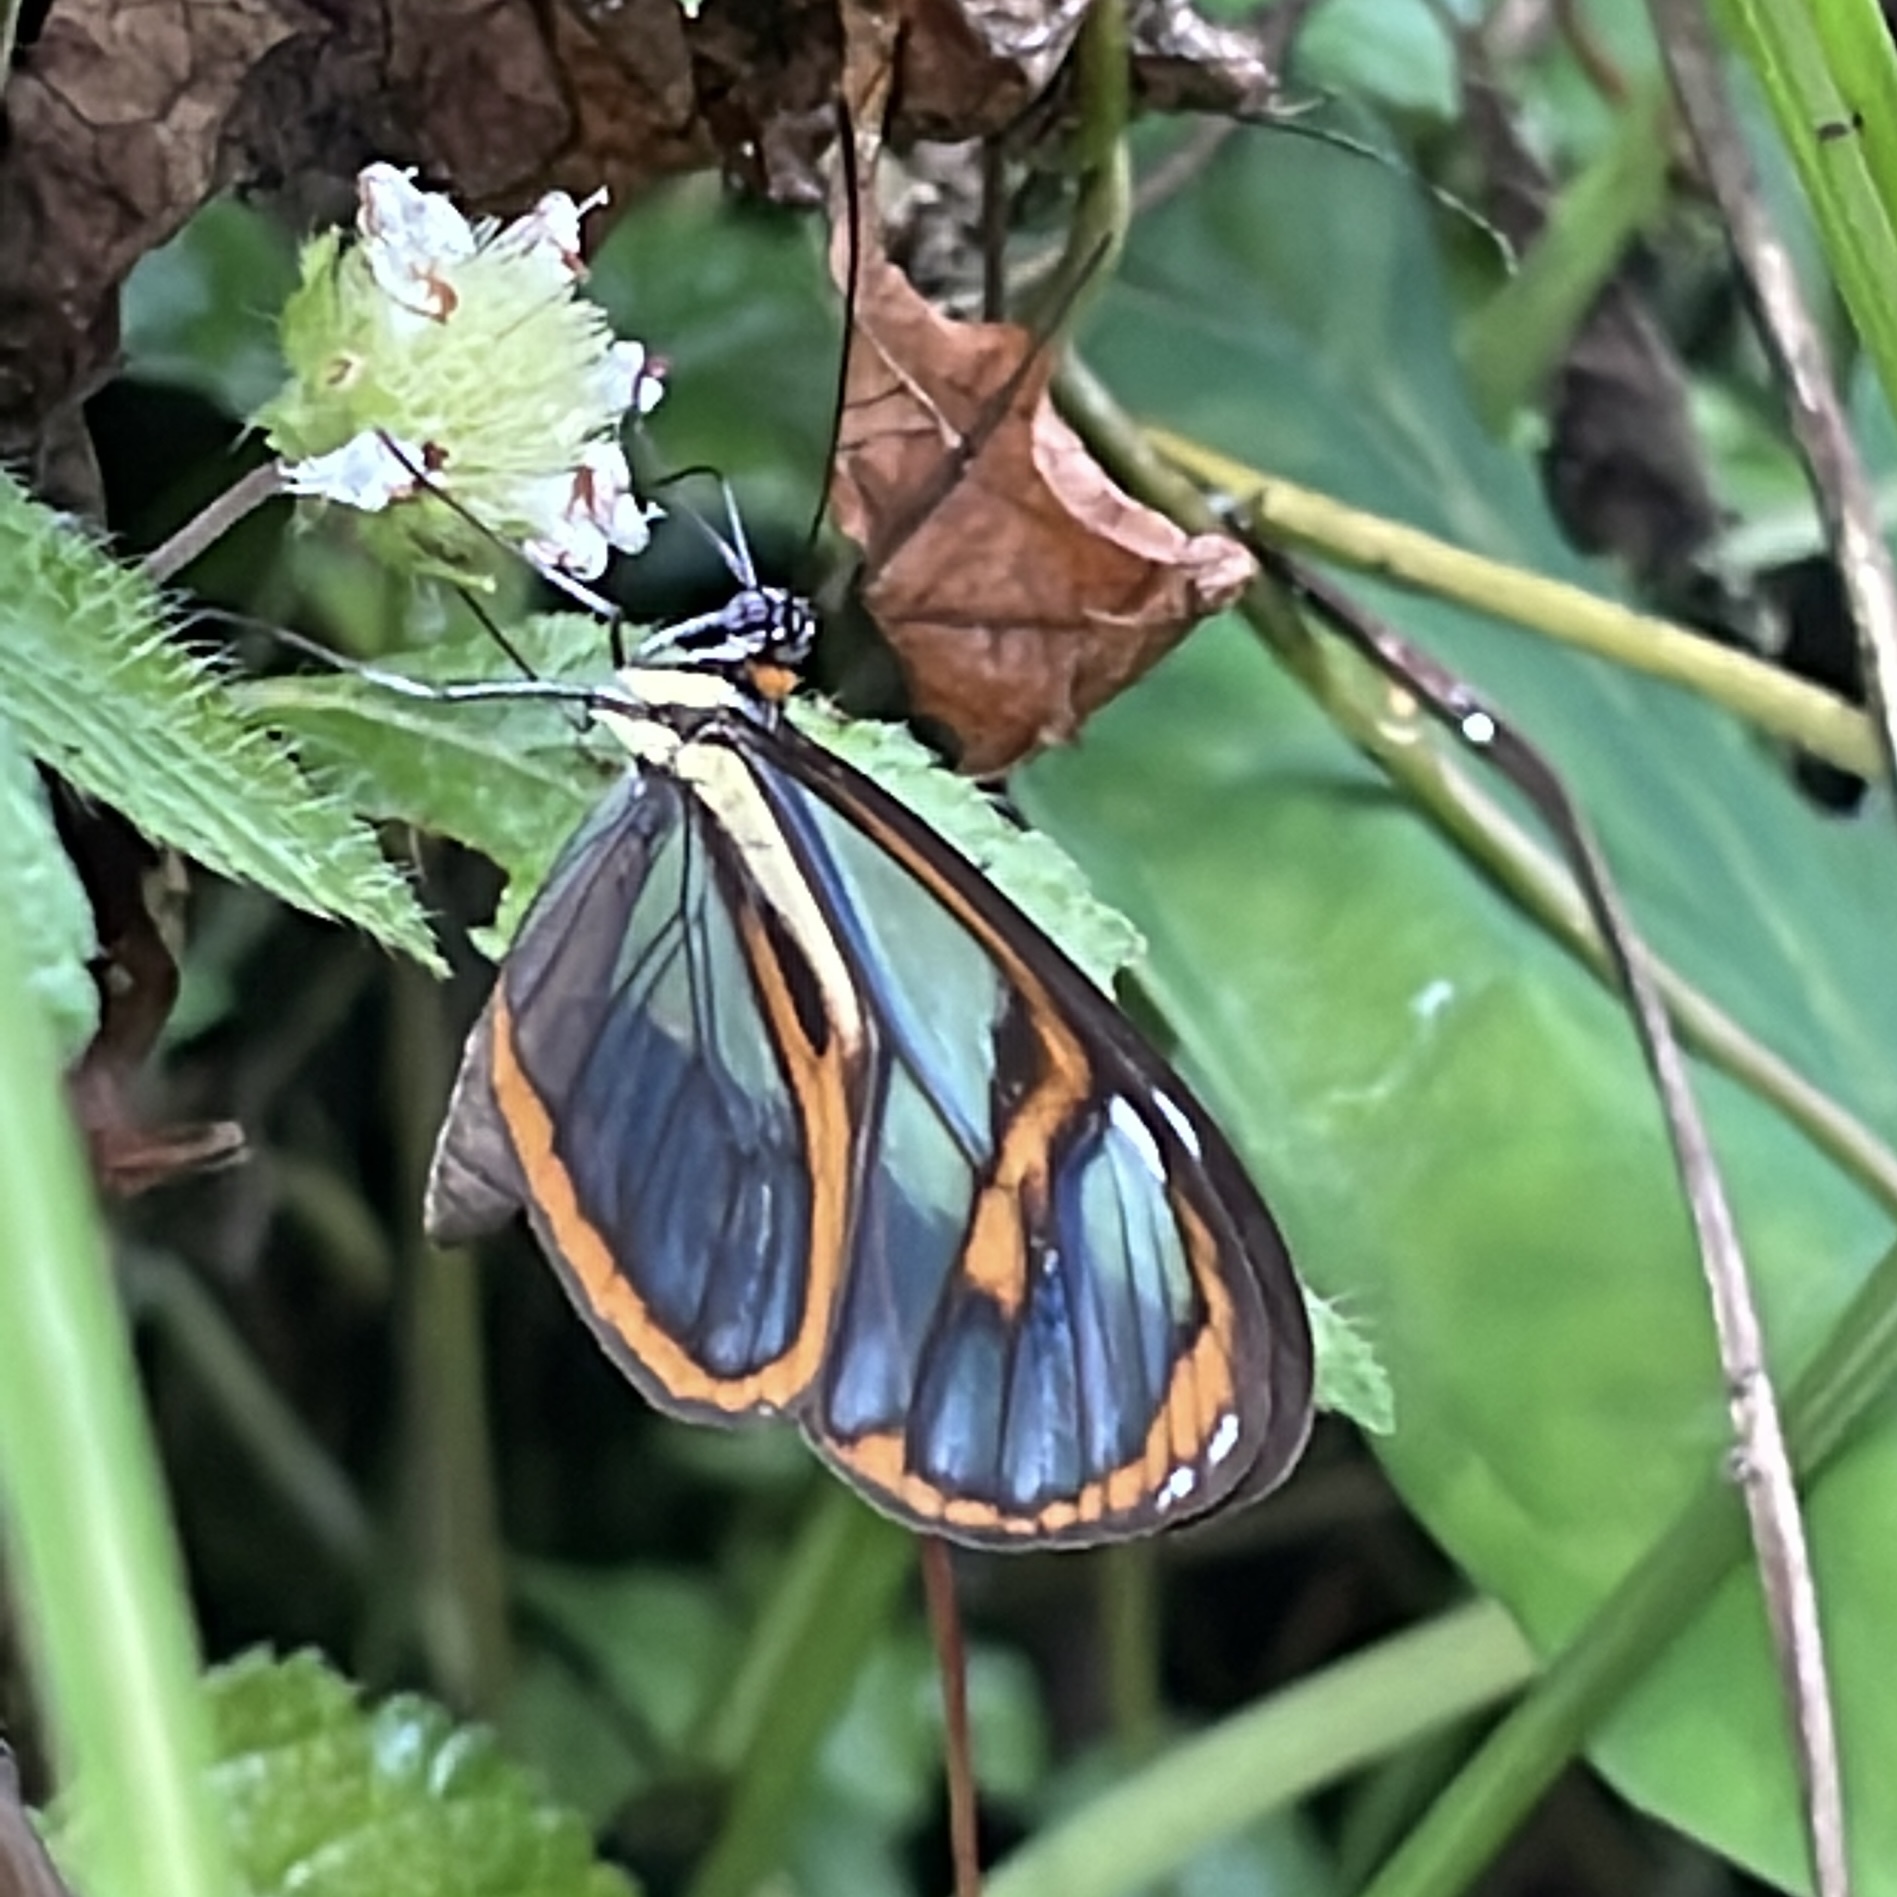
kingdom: Animalia
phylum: Arthropoda
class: Insecta
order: Lepidoptera
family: Nymphalidae
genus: Ithomia
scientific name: Ithomia agnosia
